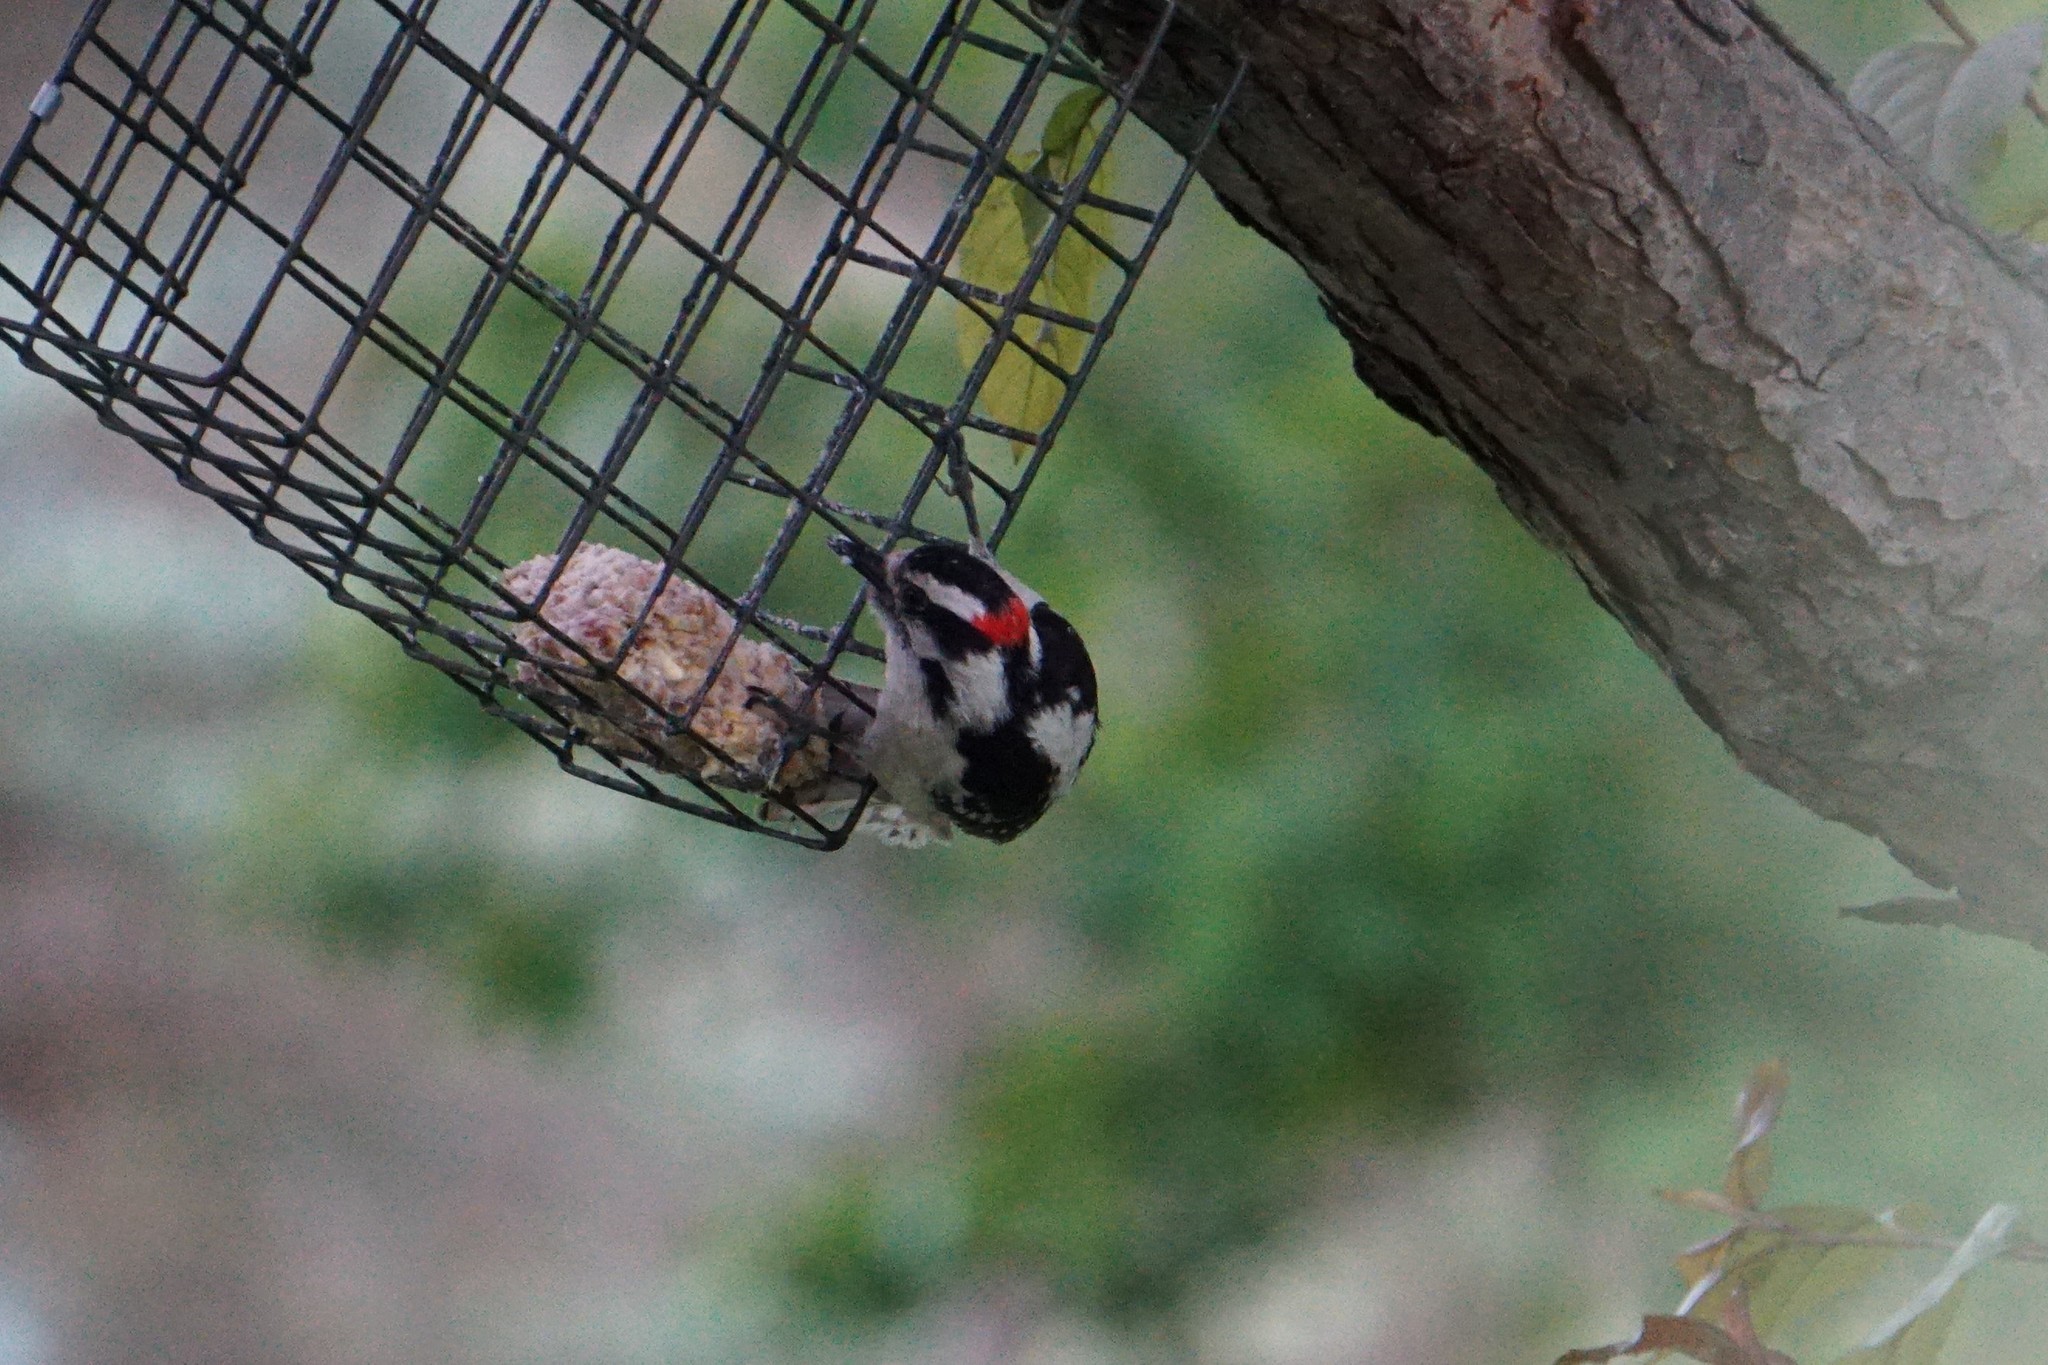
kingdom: Animalia
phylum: Chordata
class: Aves
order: Piciformes
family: Picidae
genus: Dryobates
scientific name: Dryobates pubescens
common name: Downy woodpecker
